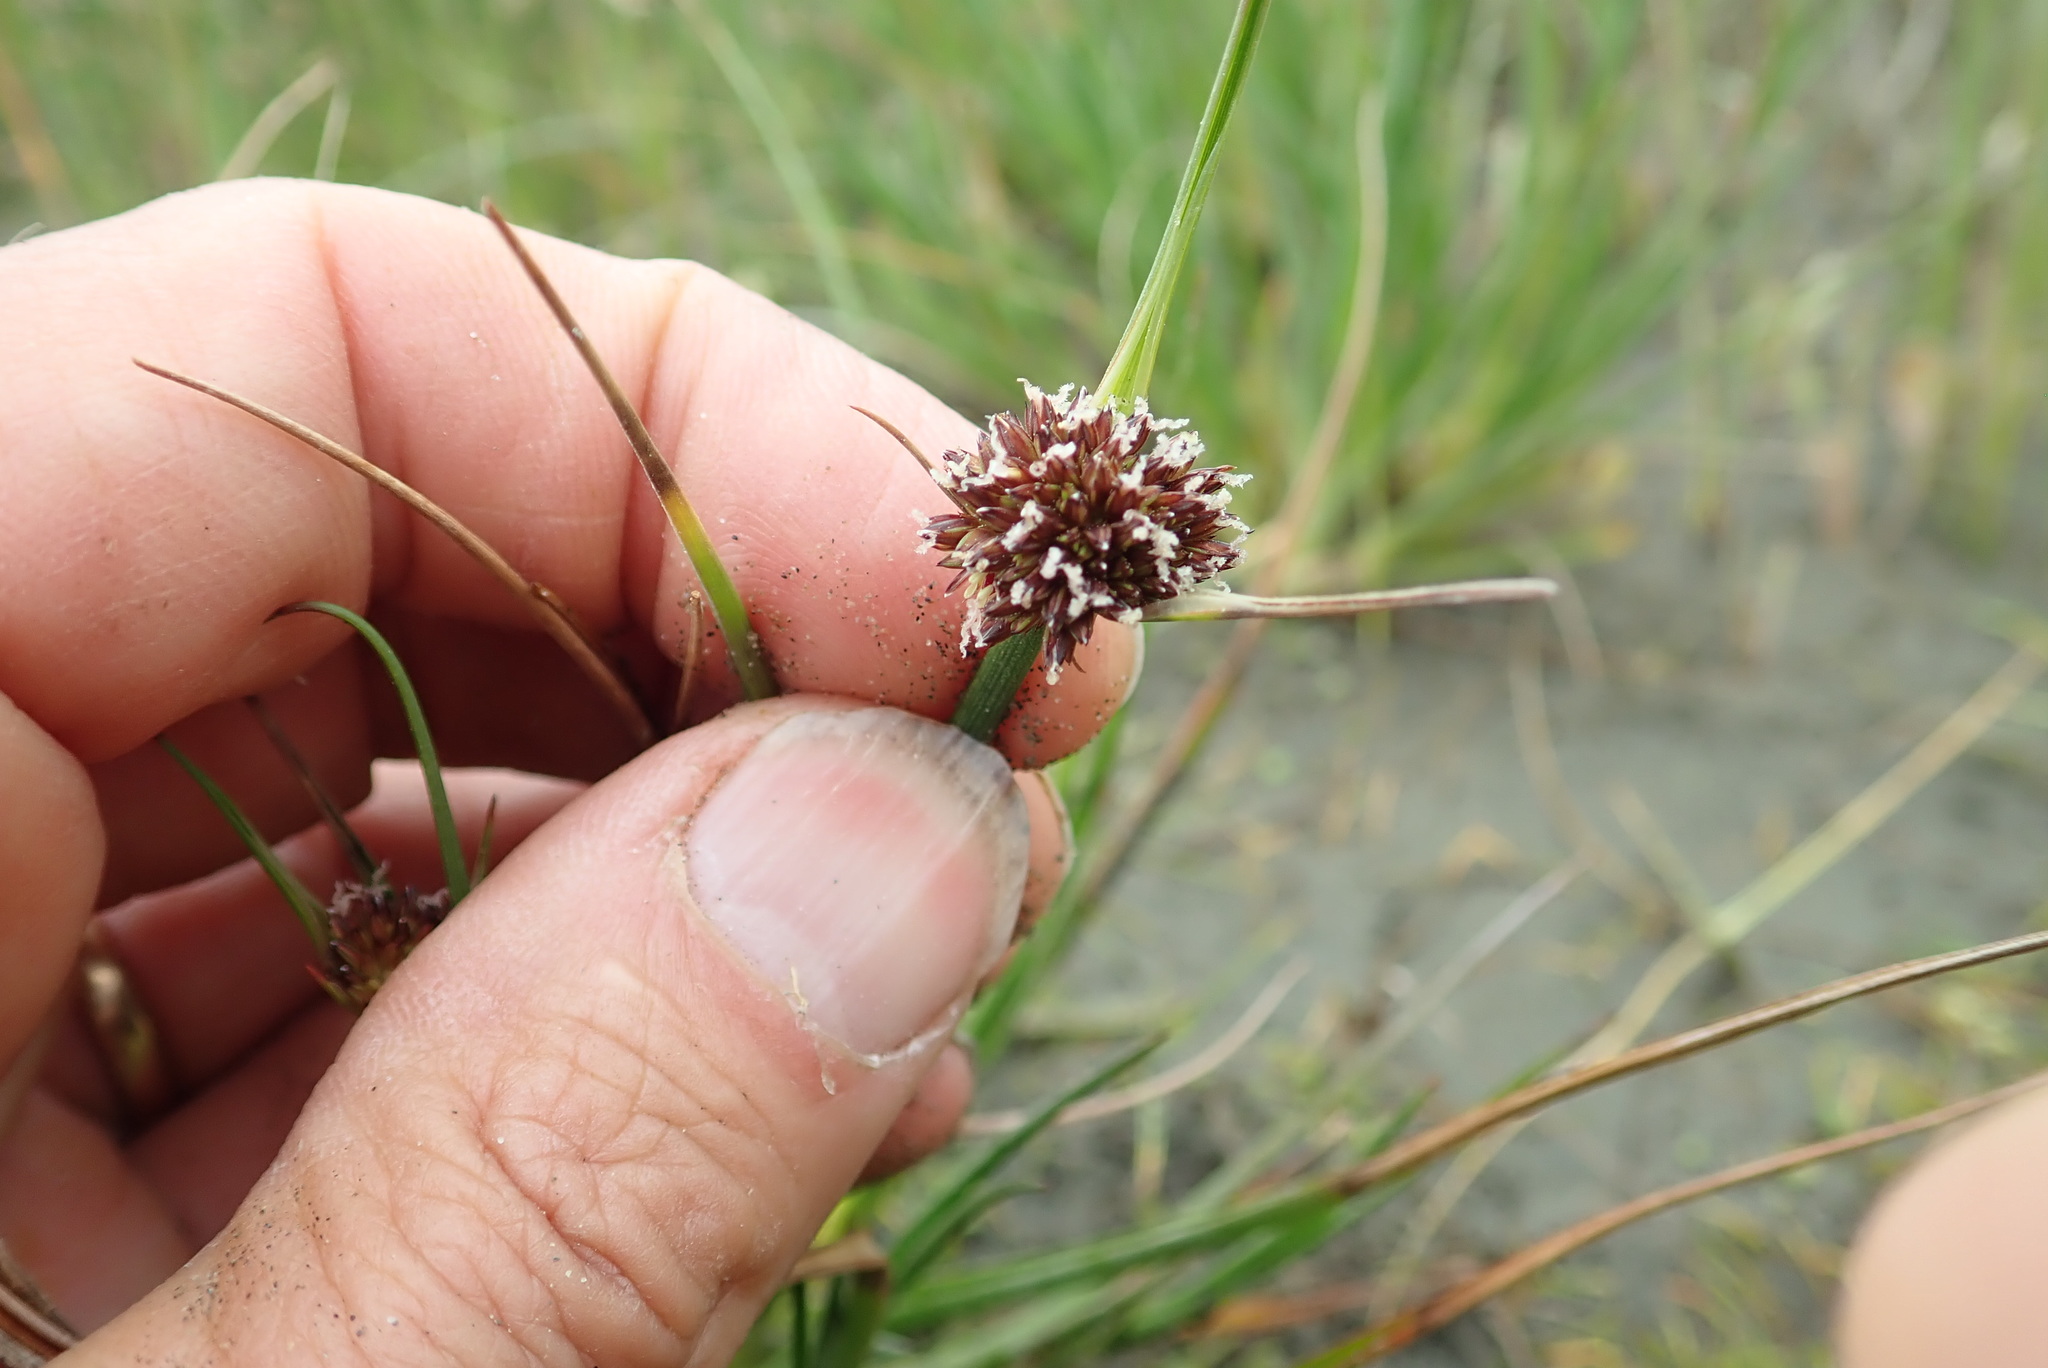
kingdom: Plantae
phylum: Tracheophyta
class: Liliopsida
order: Poales
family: Juncaceae
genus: Juncus
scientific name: Juncus caespiticius
